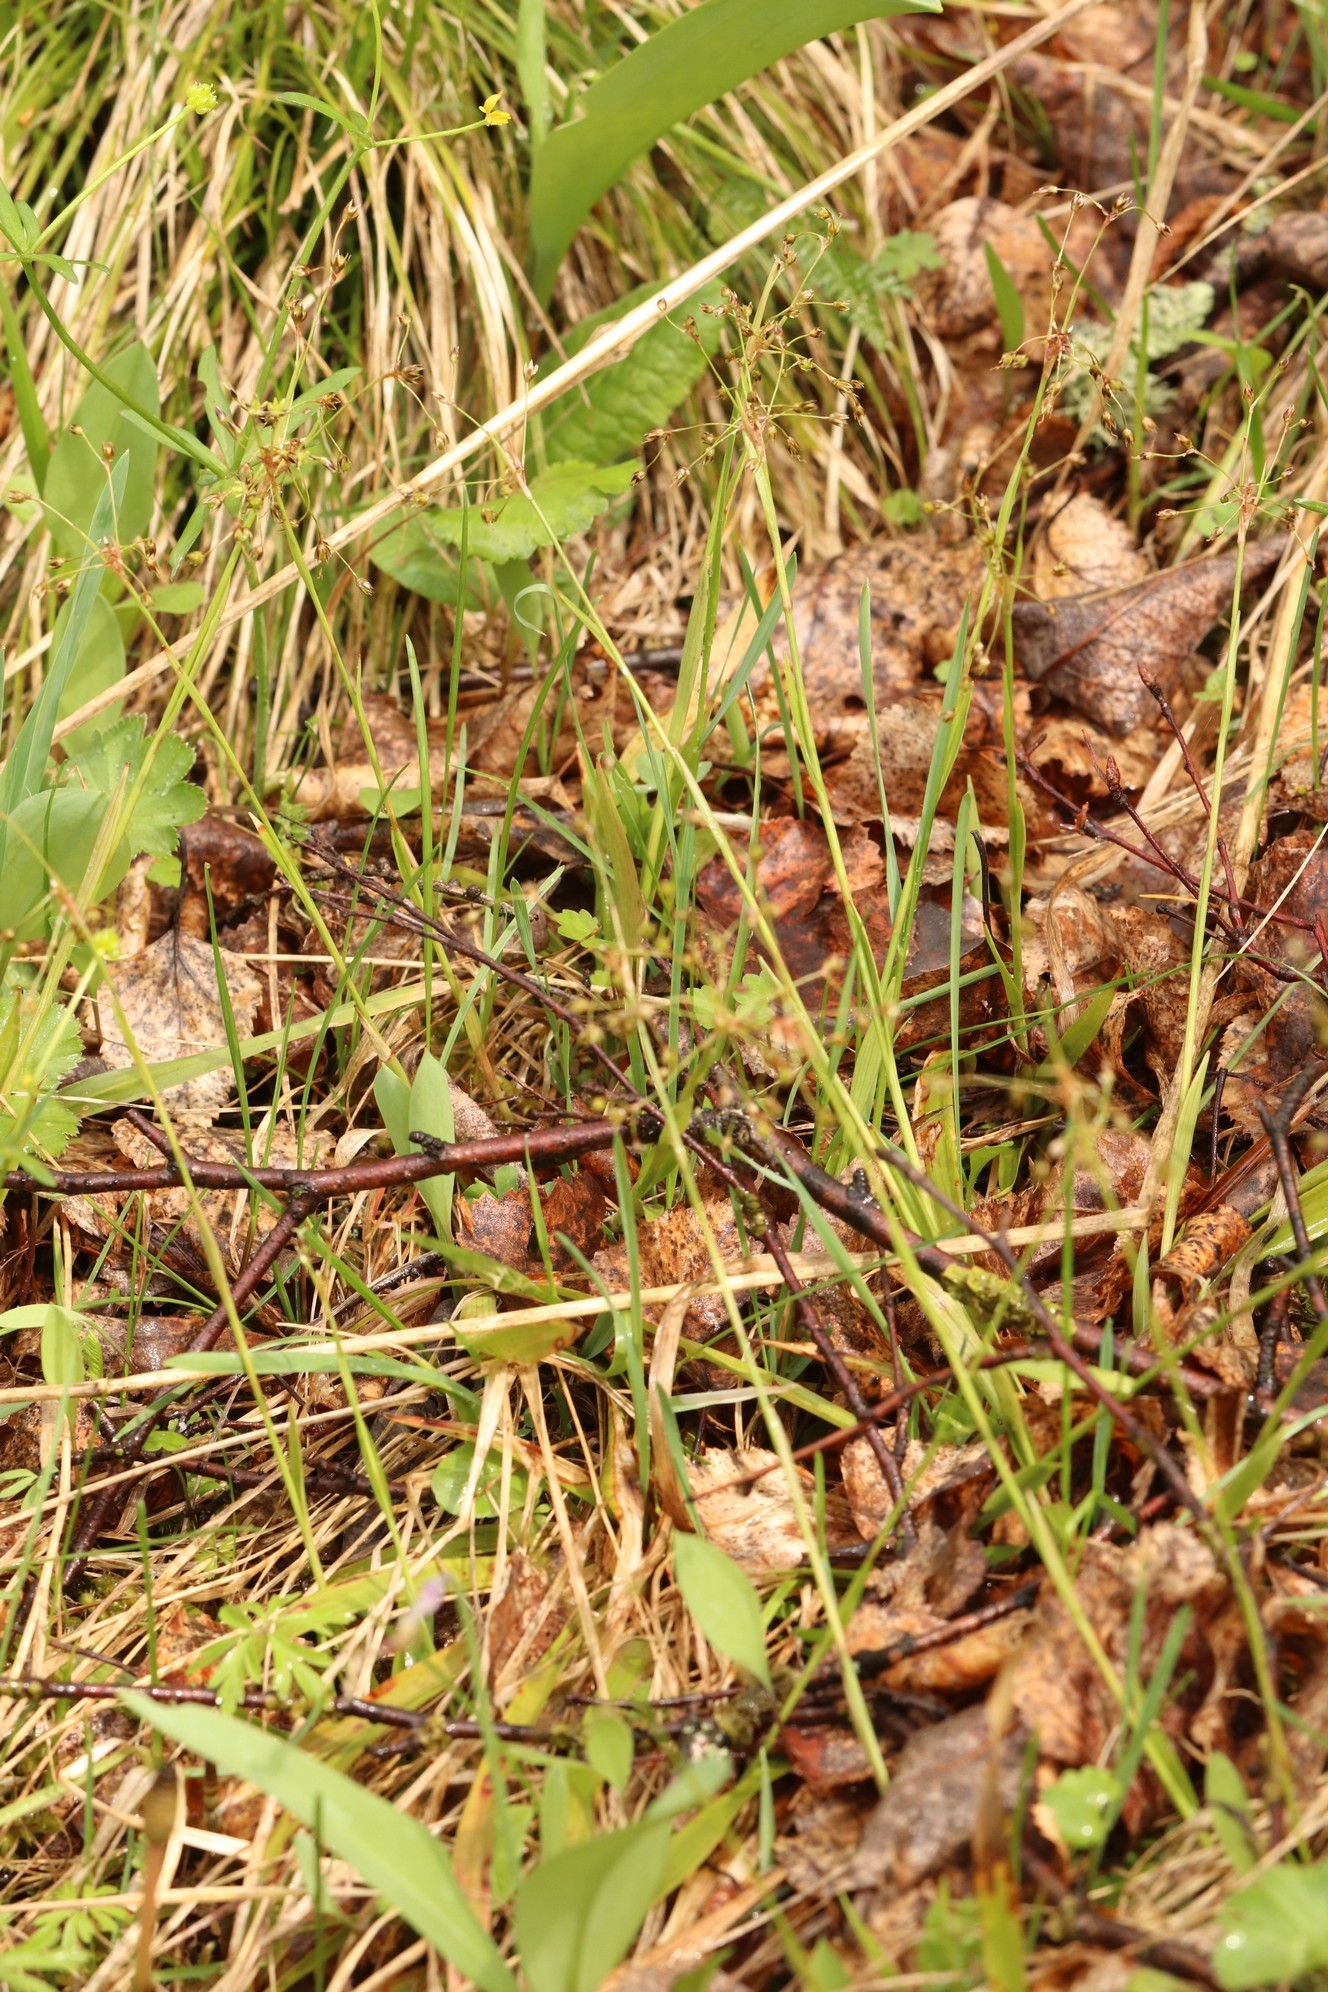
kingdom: Plantae
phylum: Tracheophyta
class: Liliopsida
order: Poales
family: Juncaceae
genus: Luzula
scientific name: Luzula pilosa
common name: Hairy wood-rush
